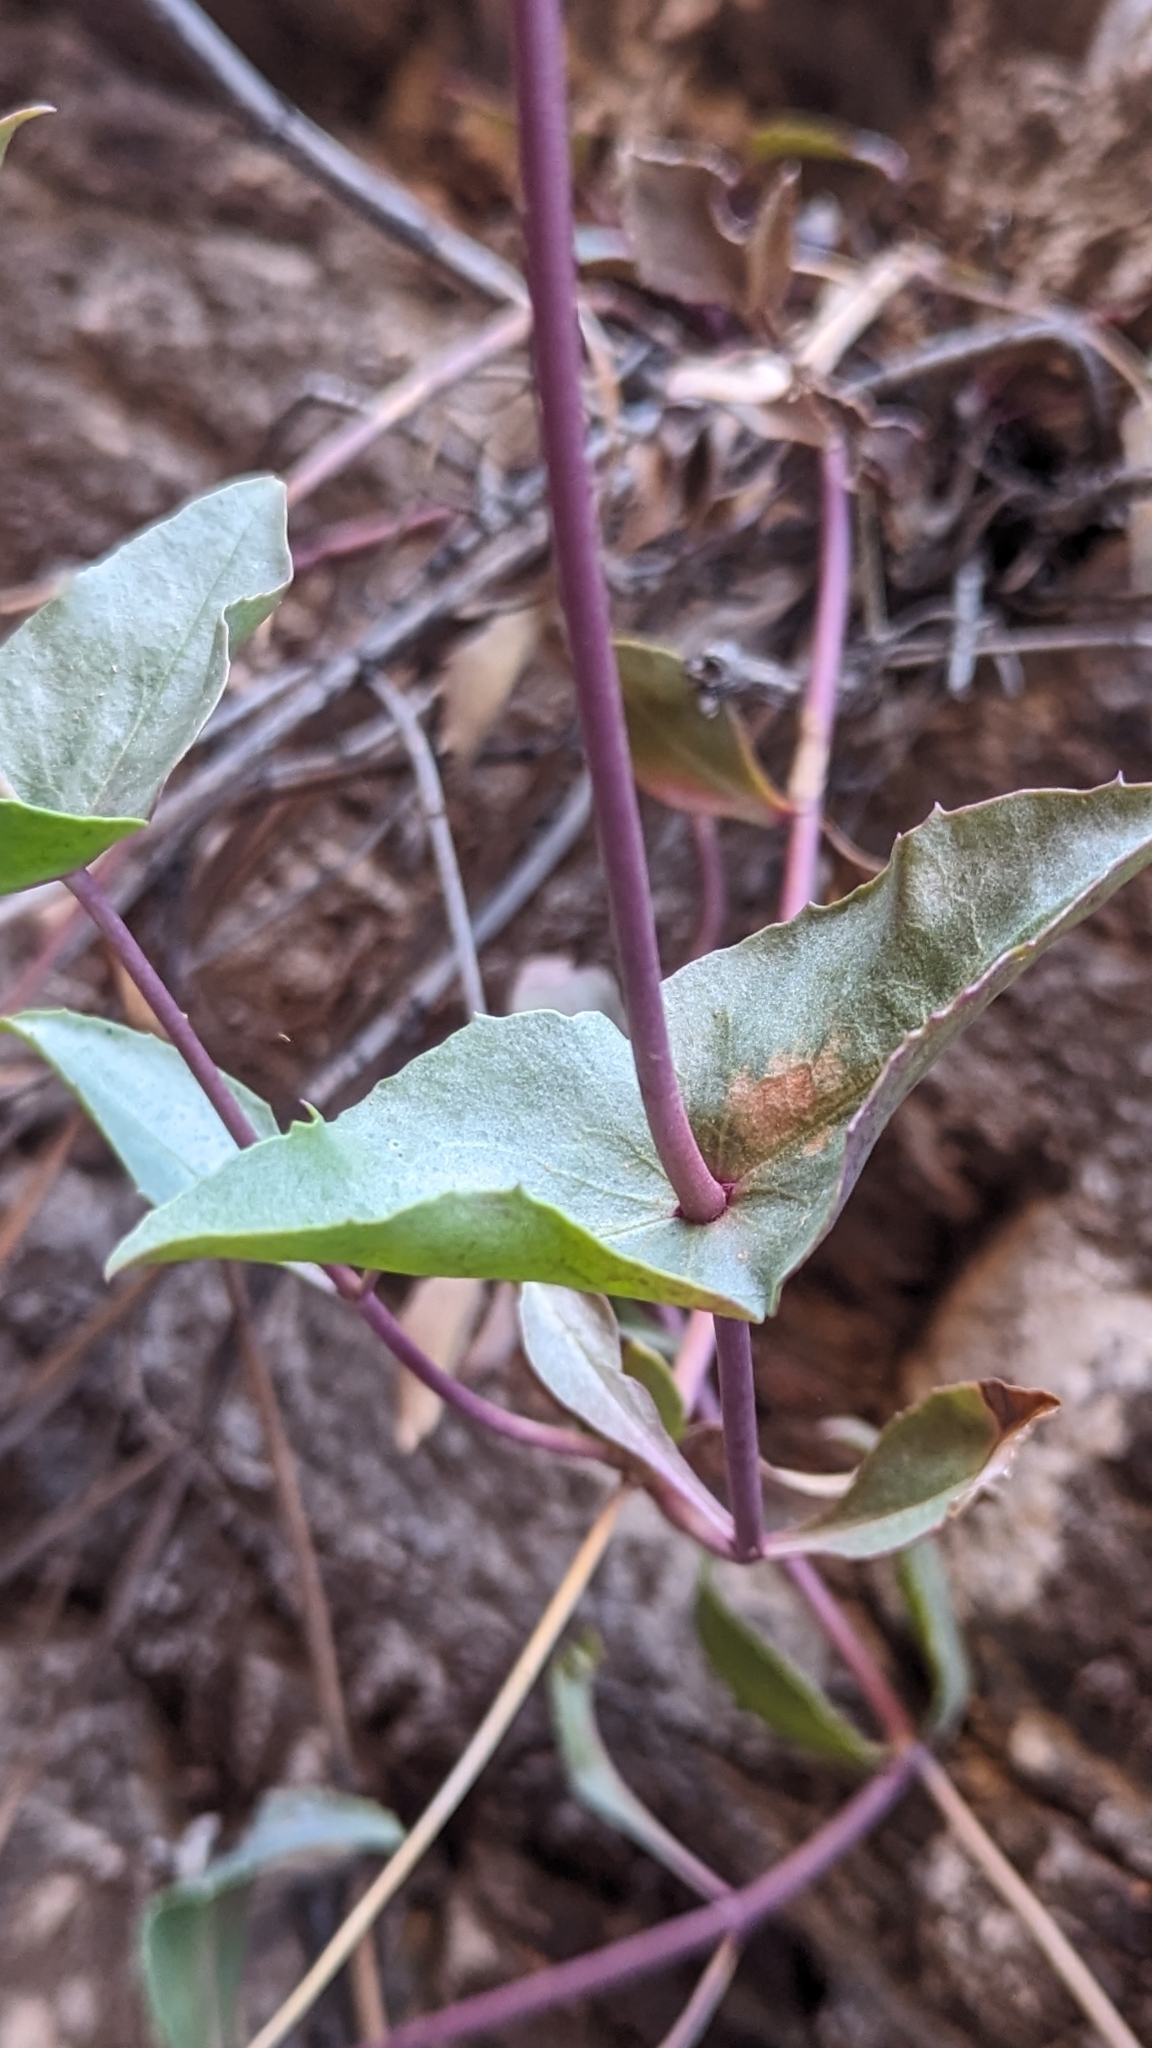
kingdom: Plantae
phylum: Tracheophyta
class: Magnoliopsida
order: Lamiales
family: Plantaginaceae
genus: Penstemon
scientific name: Penstemon palmeri
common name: Palmer penstemon
